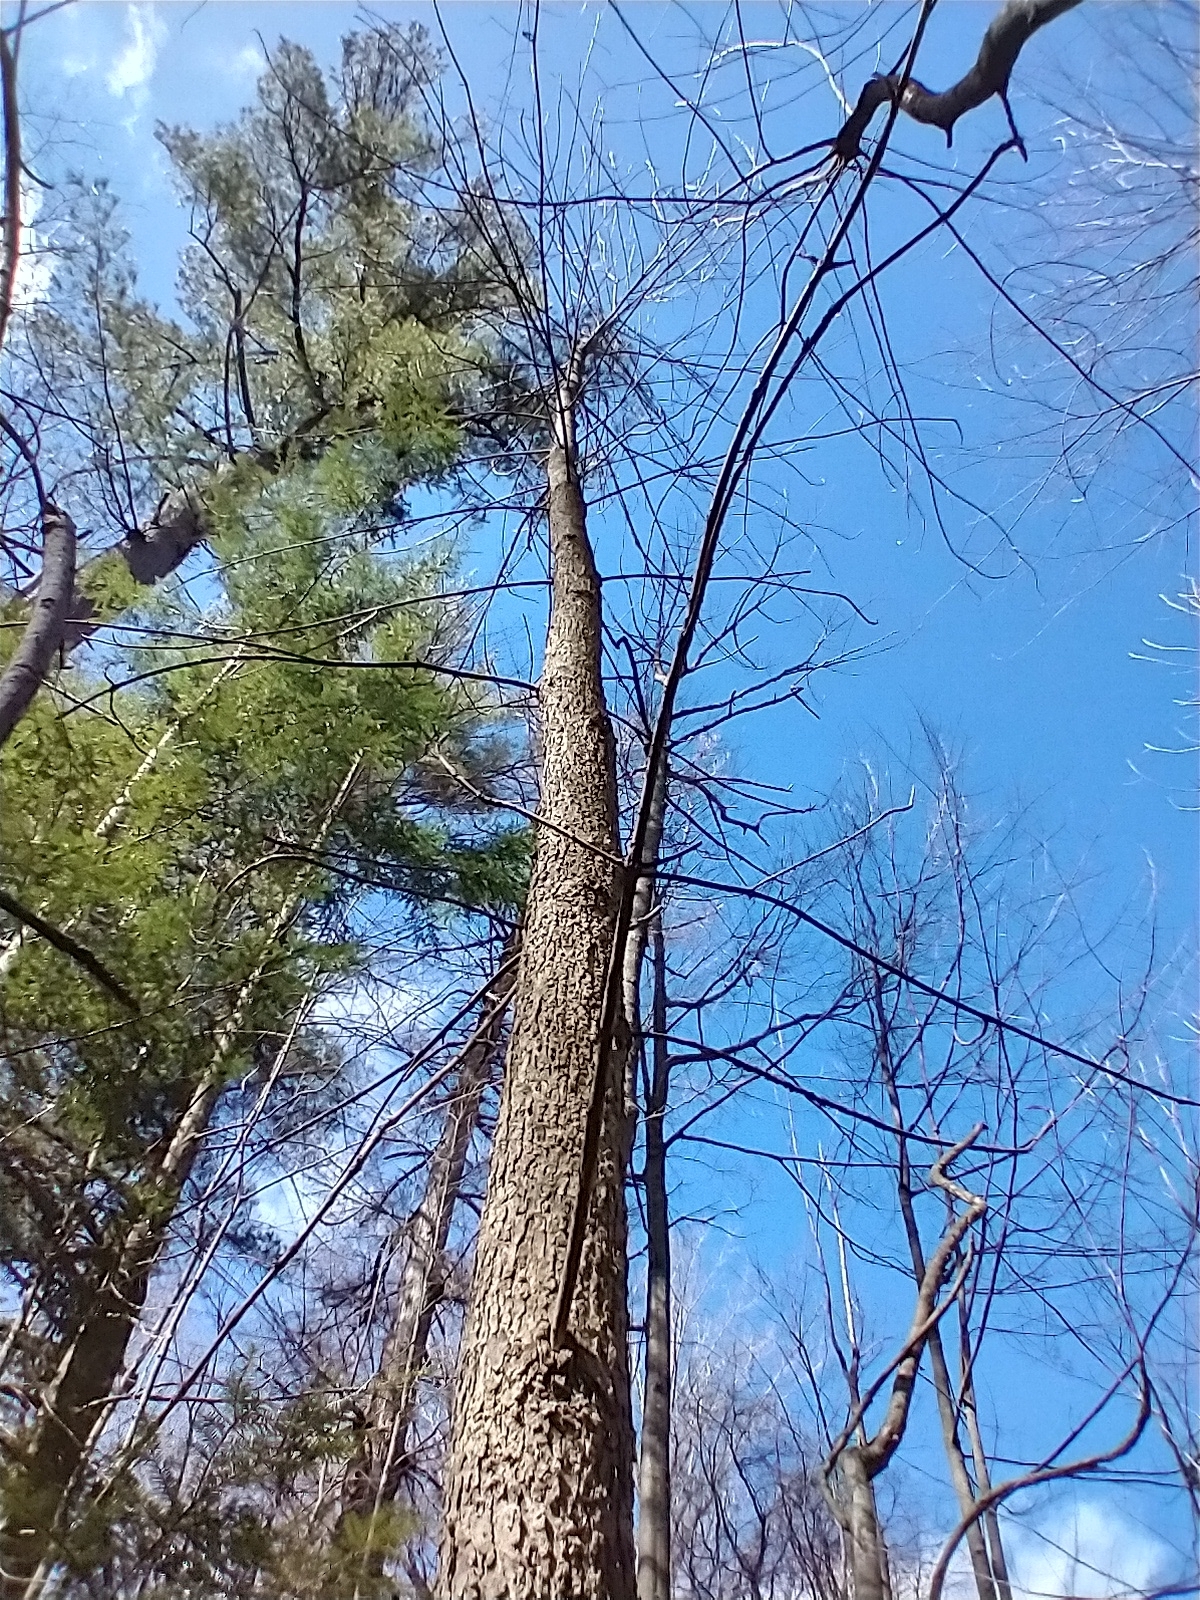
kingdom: Plantae
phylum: Tracheophyta
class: Magnoliopsida
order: Lamiales
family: Oleaceae
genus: Fraxinus
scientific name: Fraxinus nigra
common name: Black ash
